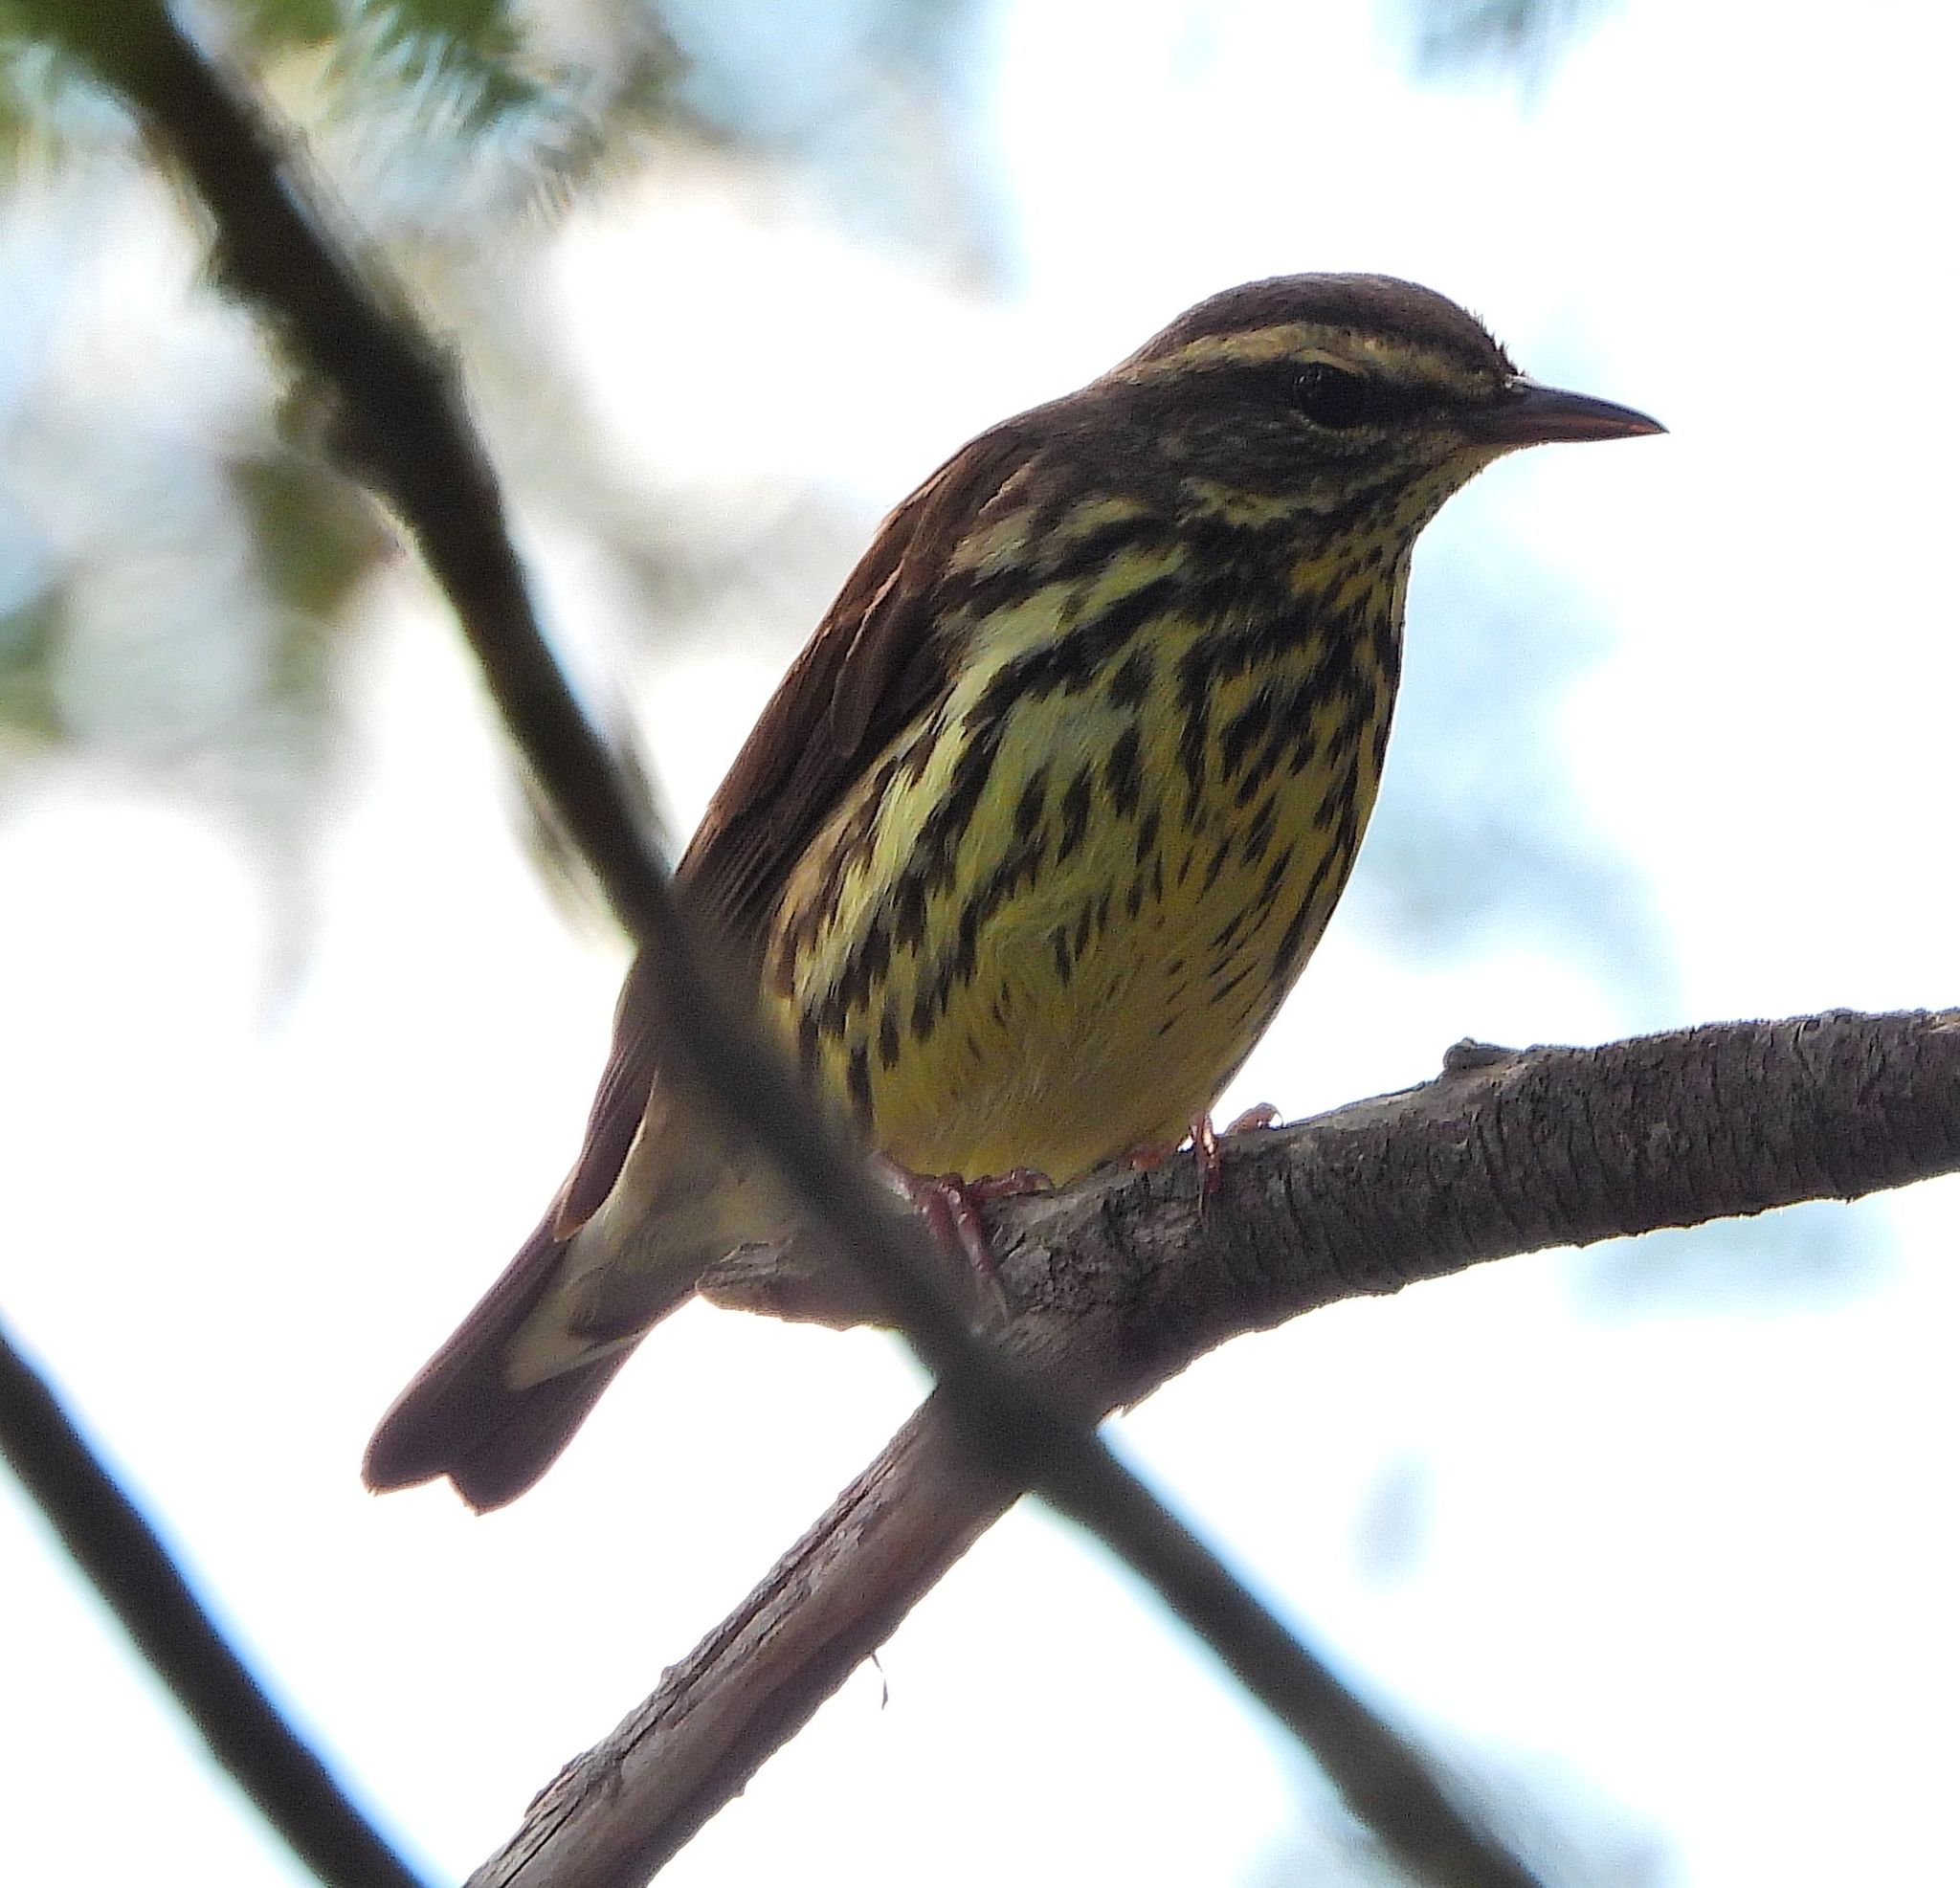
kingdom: Animalia
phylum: Chordata
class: Aves
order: Passeriformes
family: Parulidae
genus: Parkesia
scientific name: Parkesia noveboracensis
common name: Northern waterthrush
